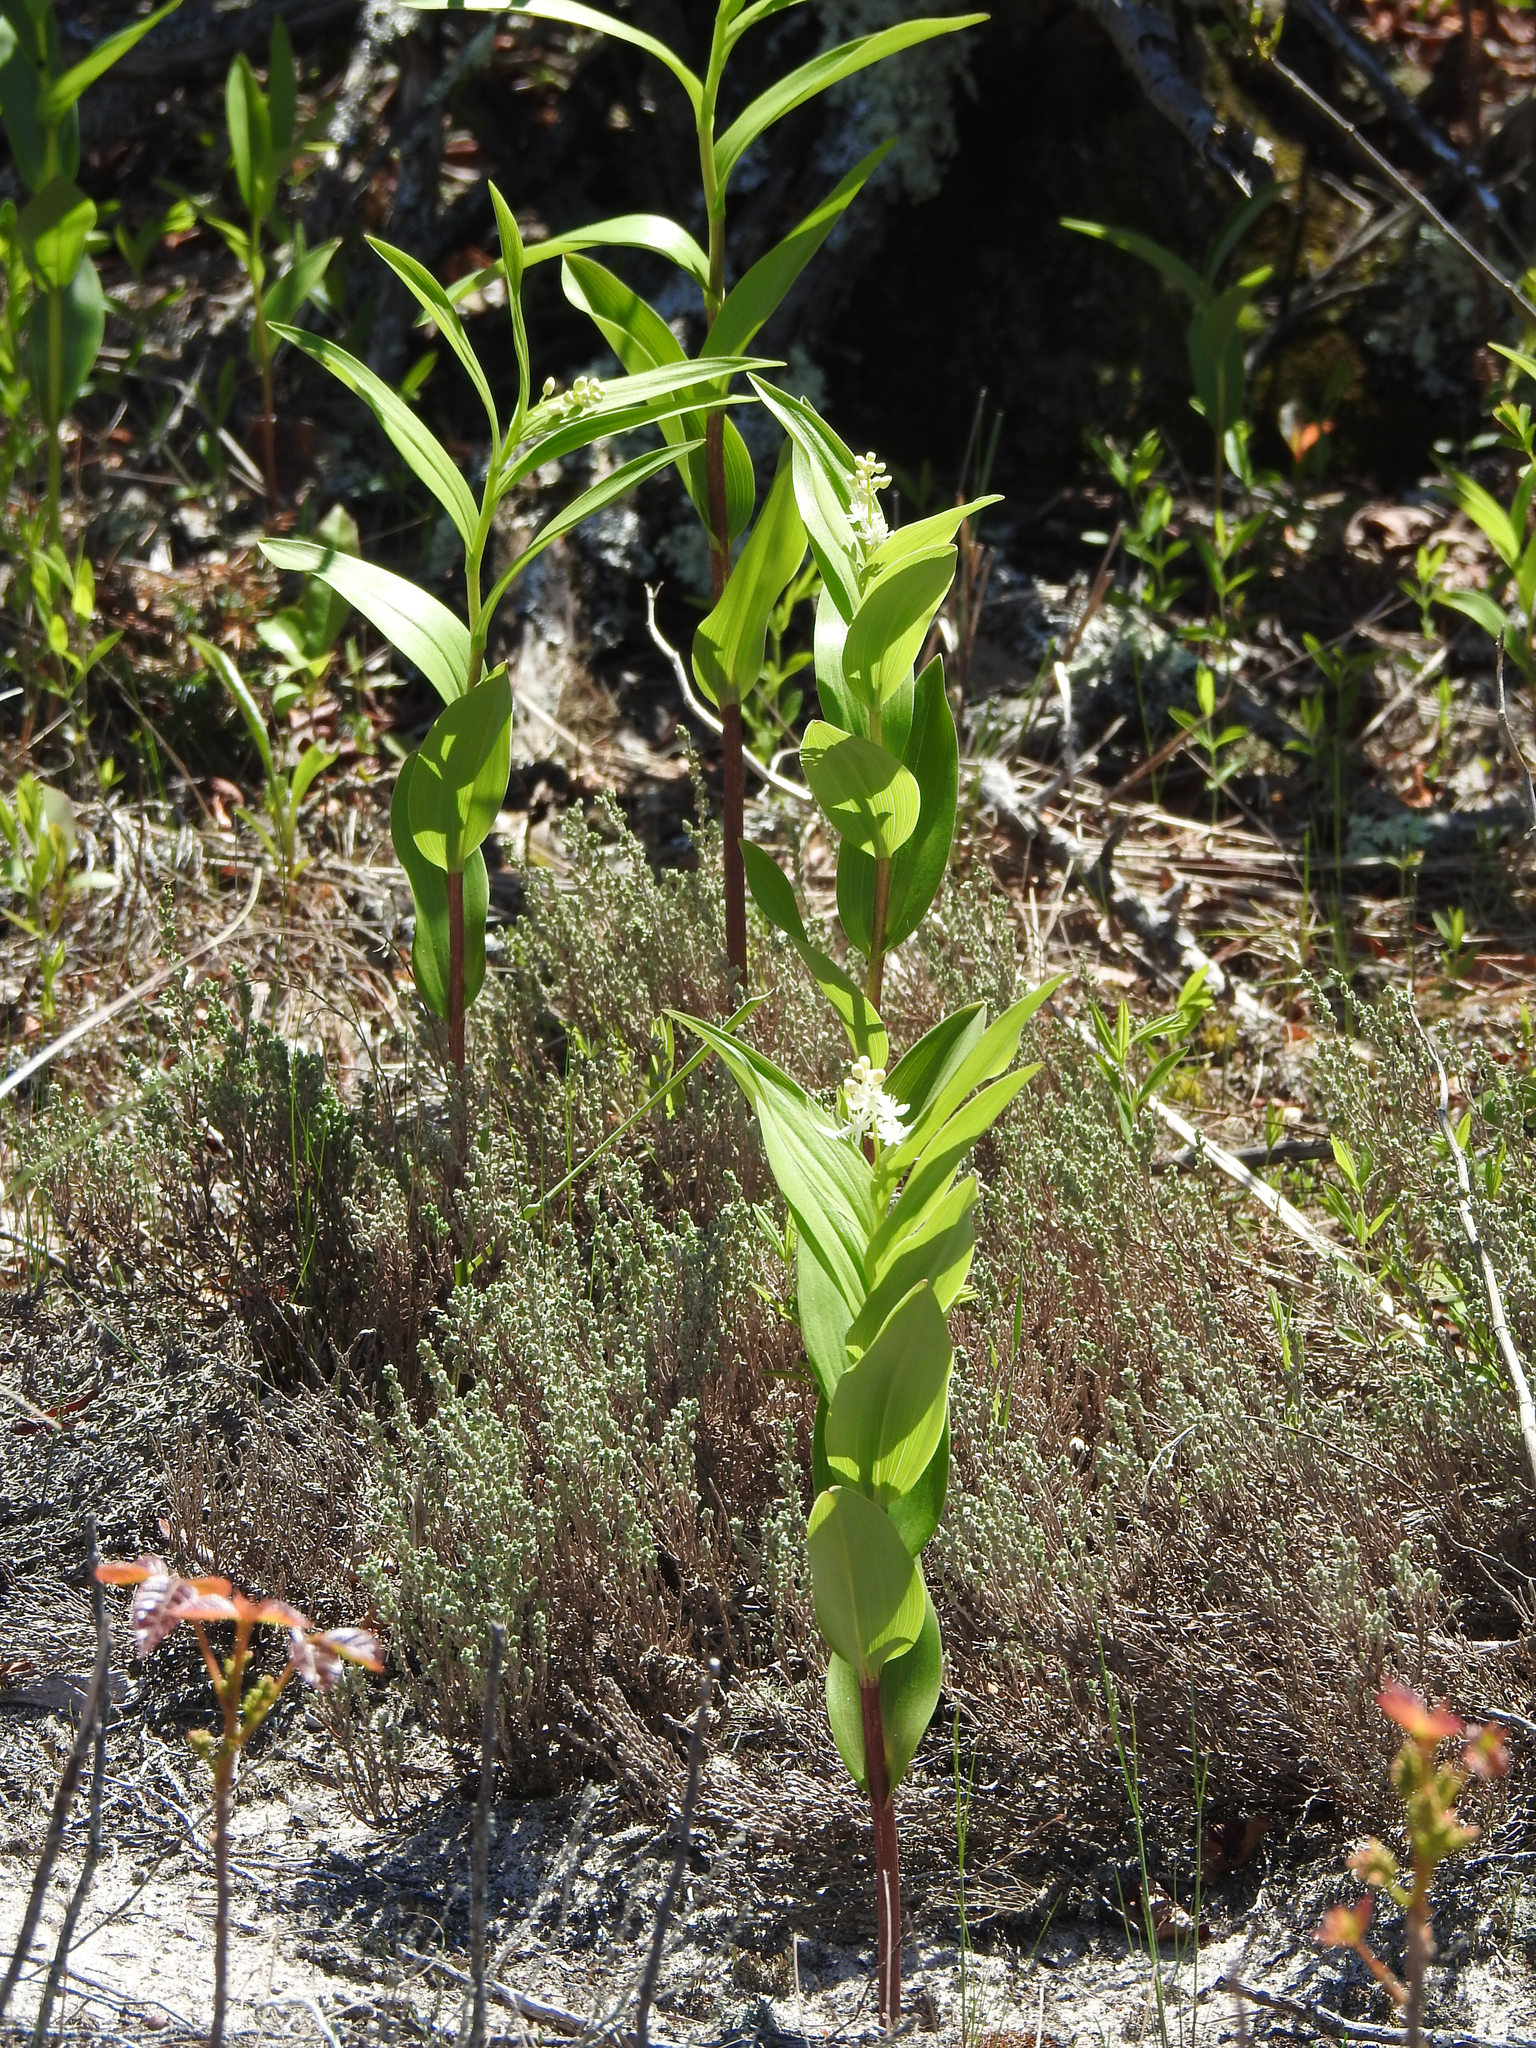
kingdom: Plantae
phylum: Tracheophyta
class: Liliopsida
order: Asparagales
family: Asparagaceae
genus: Maianthemum
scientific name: Maianthemum stellatum
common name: Little false solomon's seal
